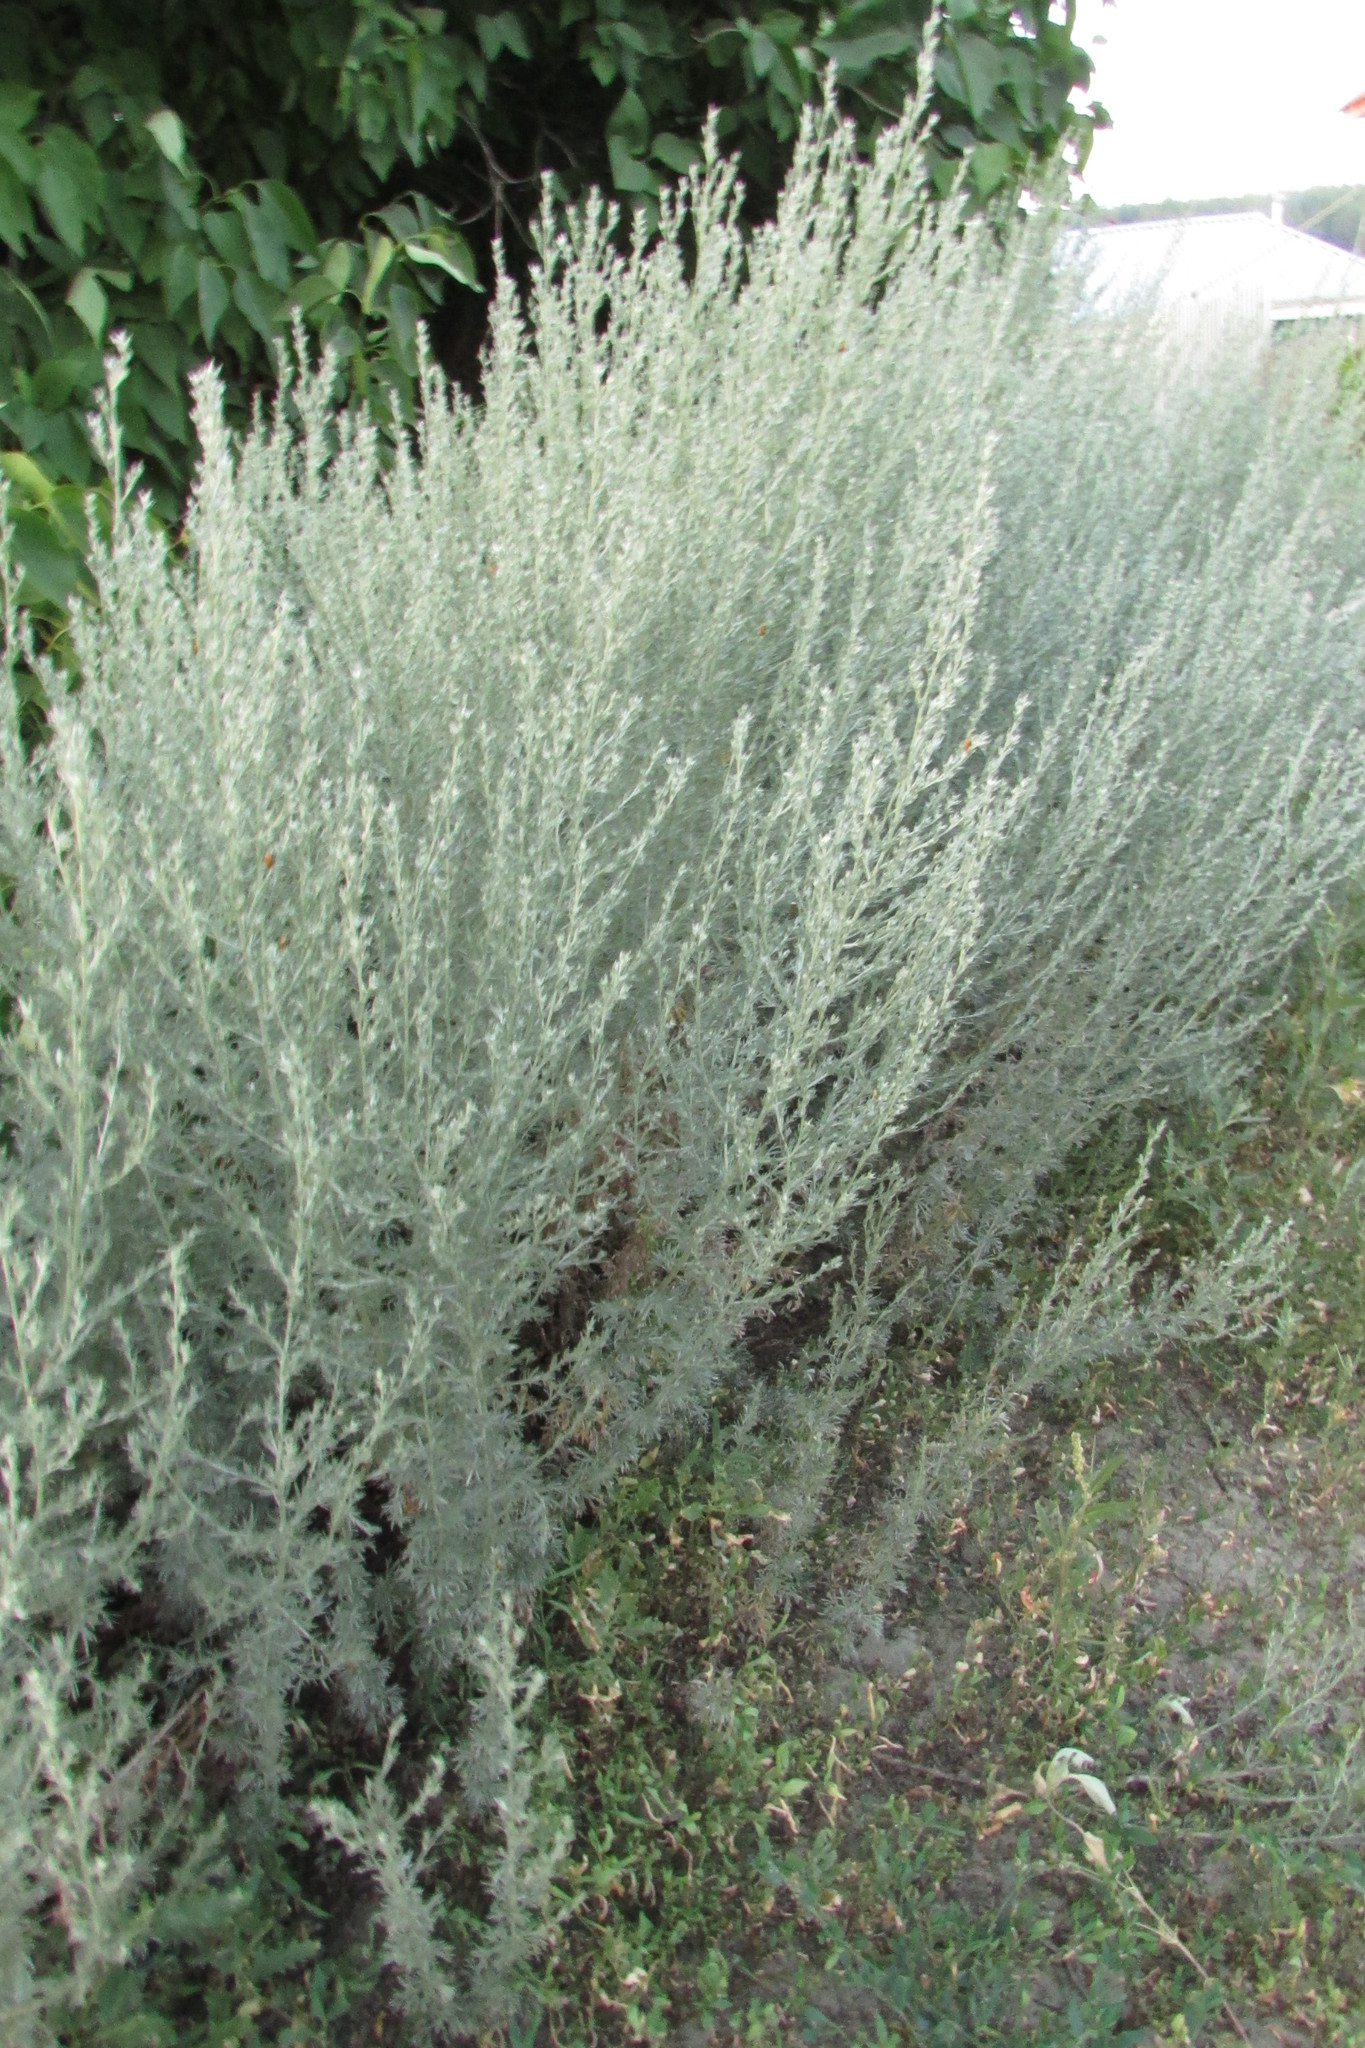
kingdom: Plantae
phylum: Tracheophyta
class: Magnoliopsida
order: Asterales
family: Asteraceae
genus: Artemisia
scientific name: Artemisia austriaca
